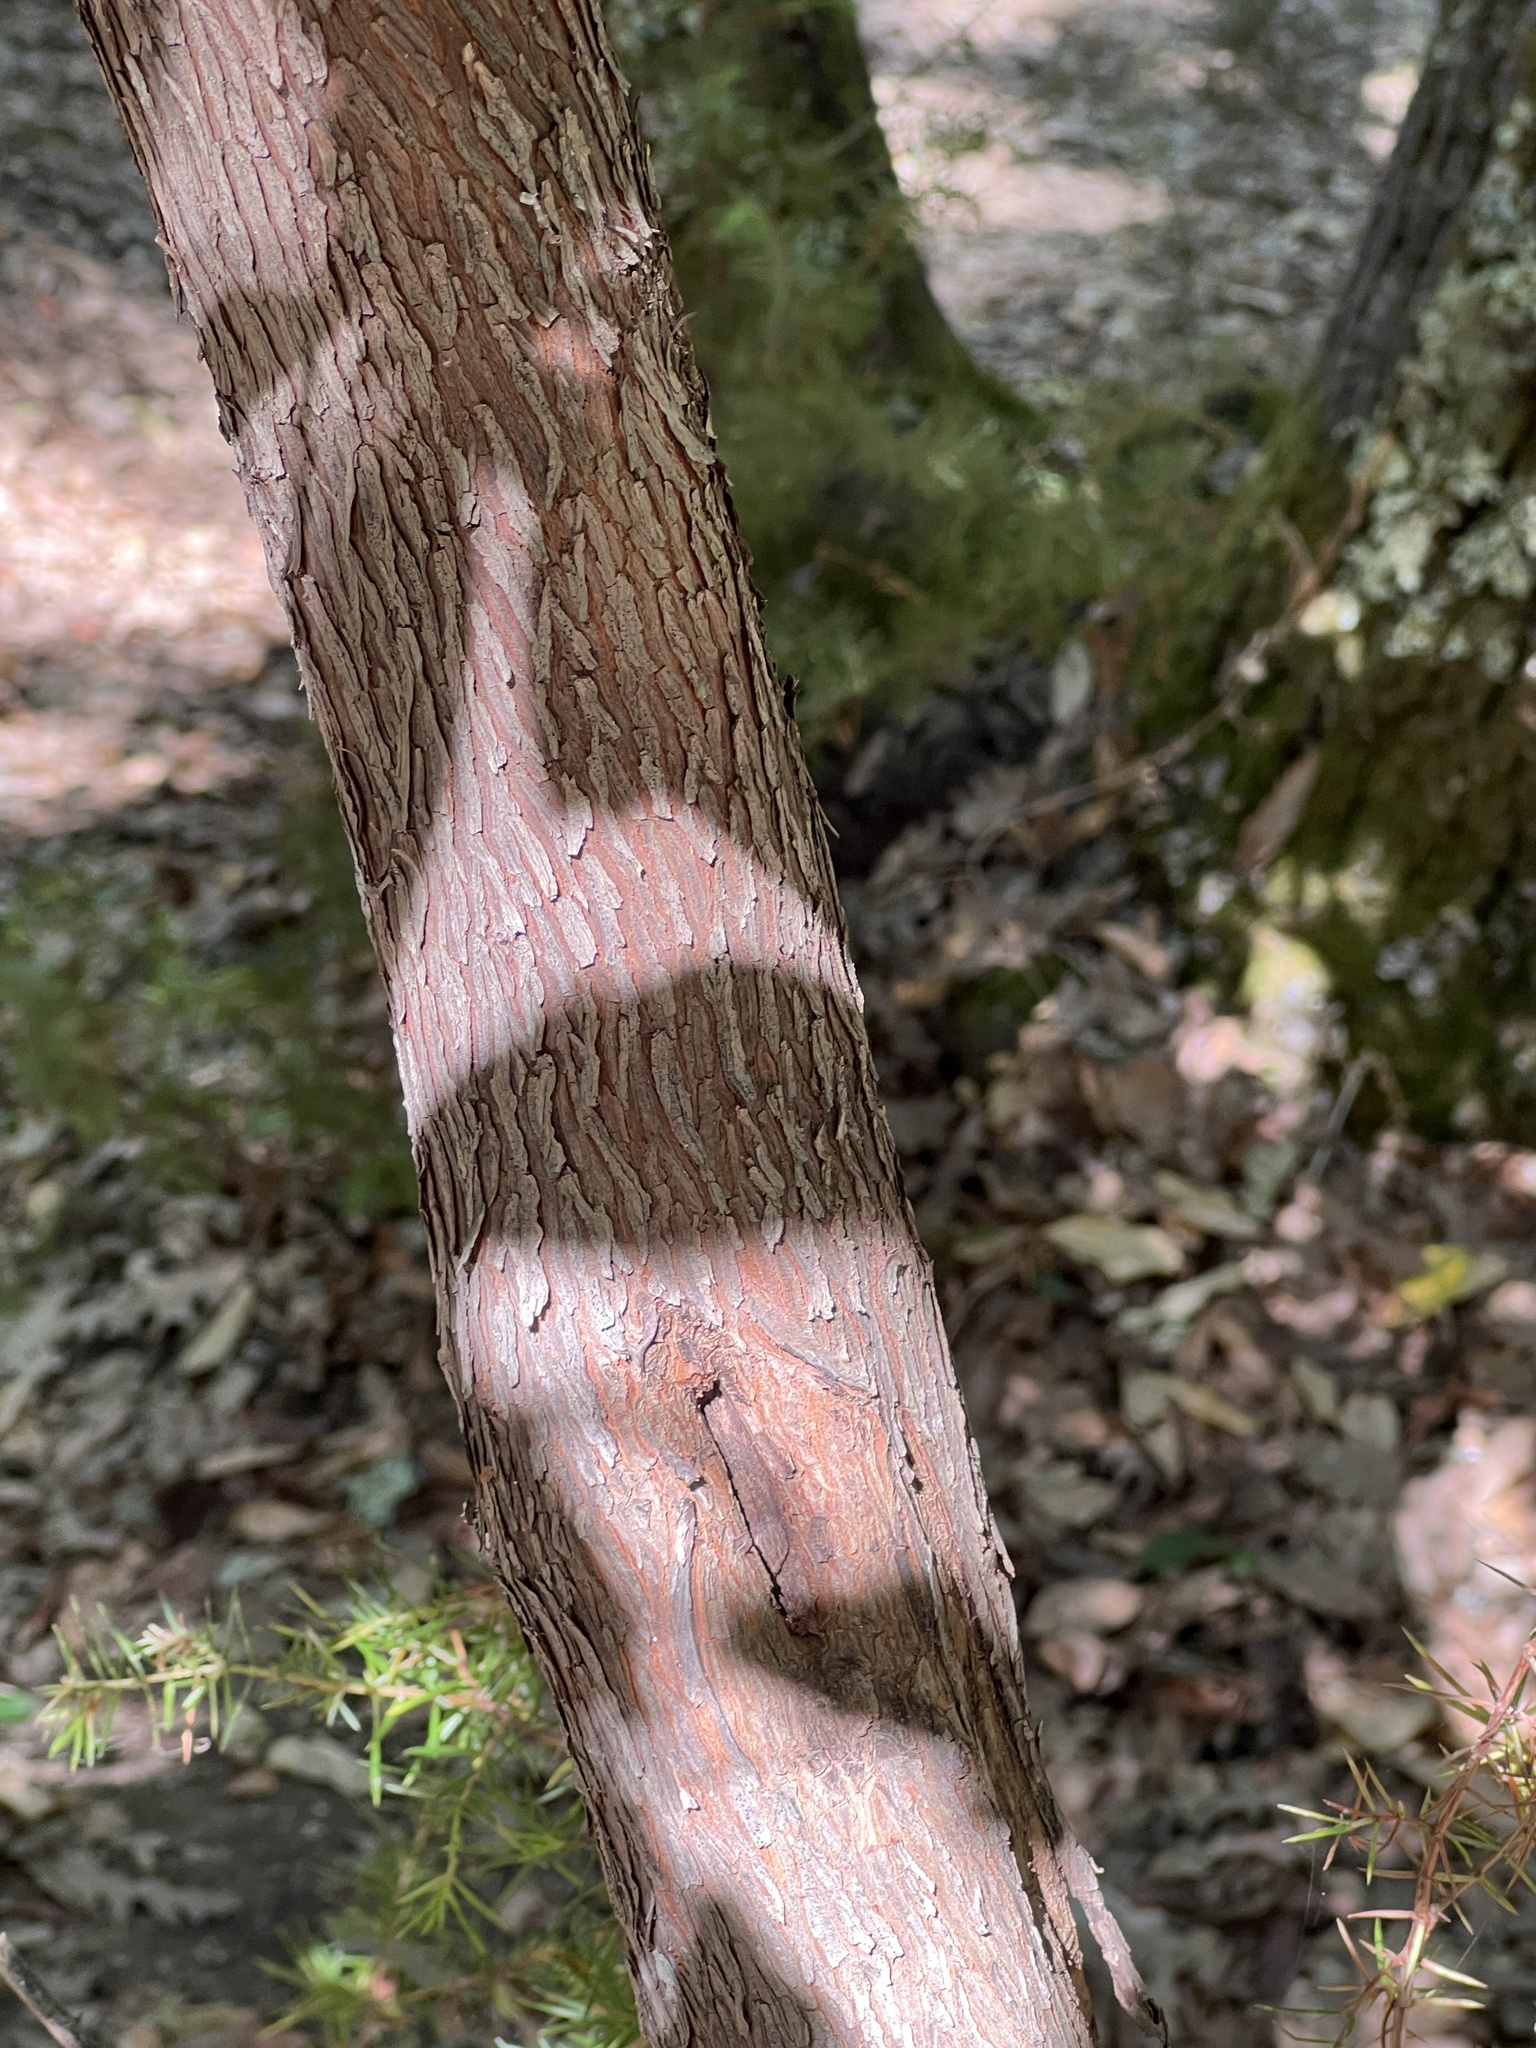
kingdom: Plantae
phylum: Tracheophyta
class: Magnoliopsida
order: Ericales
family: Ericaceae
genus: Arbutus
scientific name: Arbutus unedo
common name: Strawberry-tree
